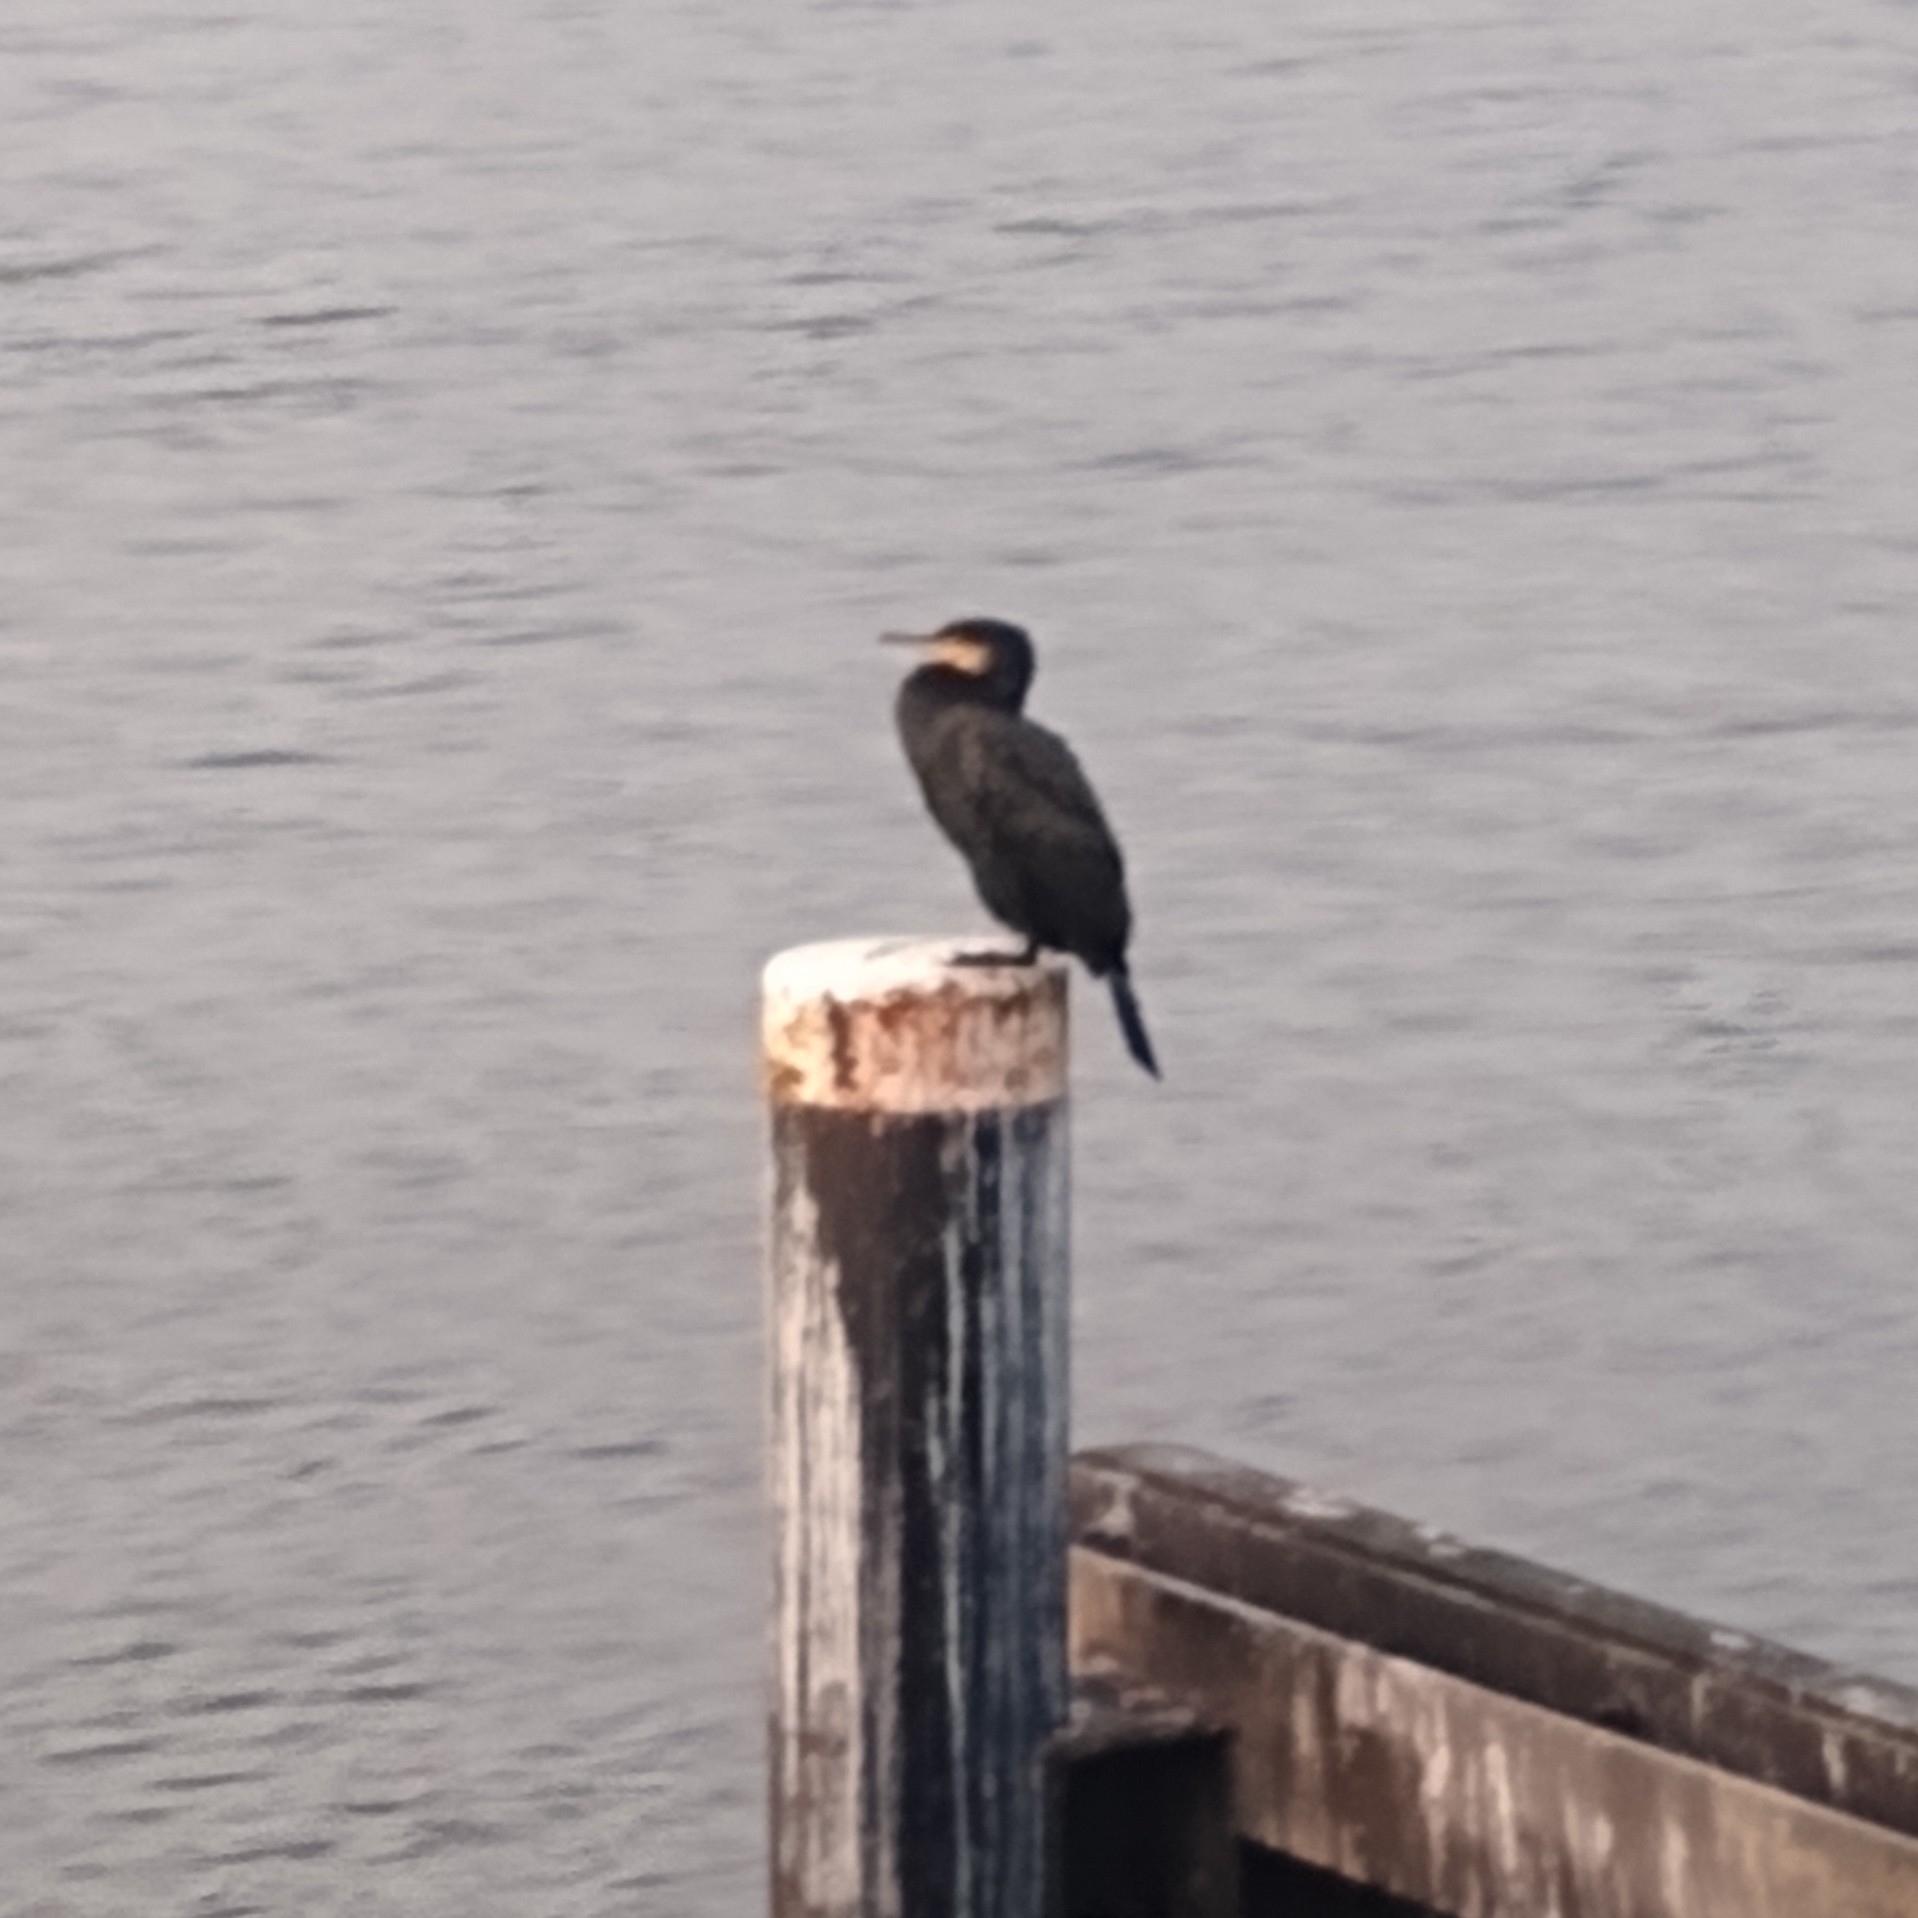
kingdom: Animalia
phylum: Chordata
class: Aves
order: Suliformes
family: Phalacrocoracidae
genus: Phalacrocorax
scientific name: Phalacrocorax carbo
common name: Great cormorant
